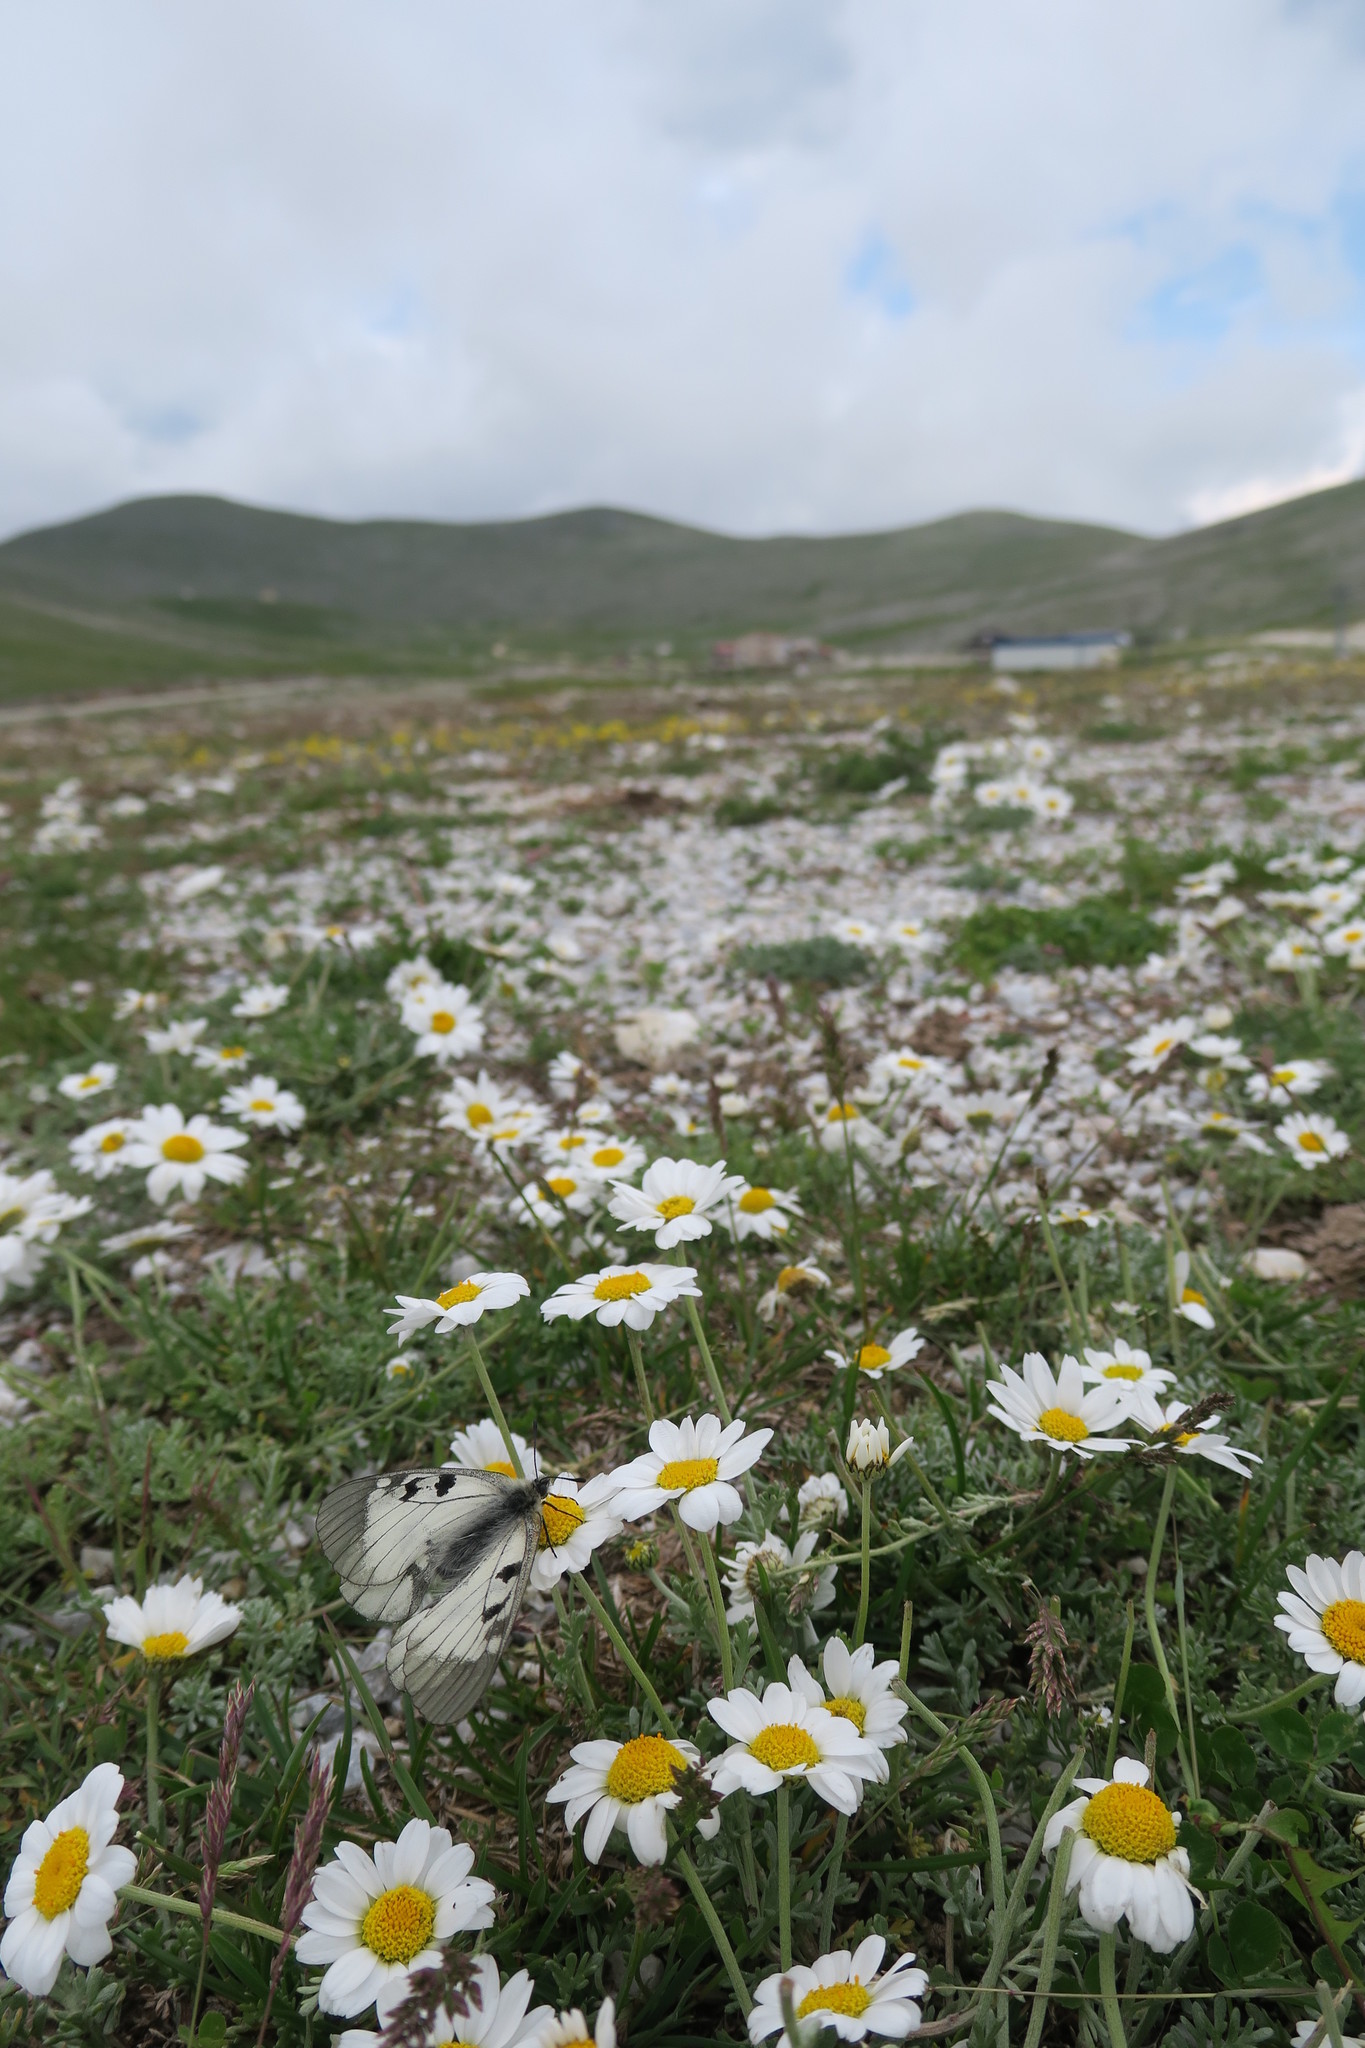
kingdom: Animalia
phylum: Arthropoda
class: Insecta
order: Lepidoptera
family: Papilionidae
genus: Parnassius
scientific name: Parnassius mnemosyne
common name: Clouded apollo
